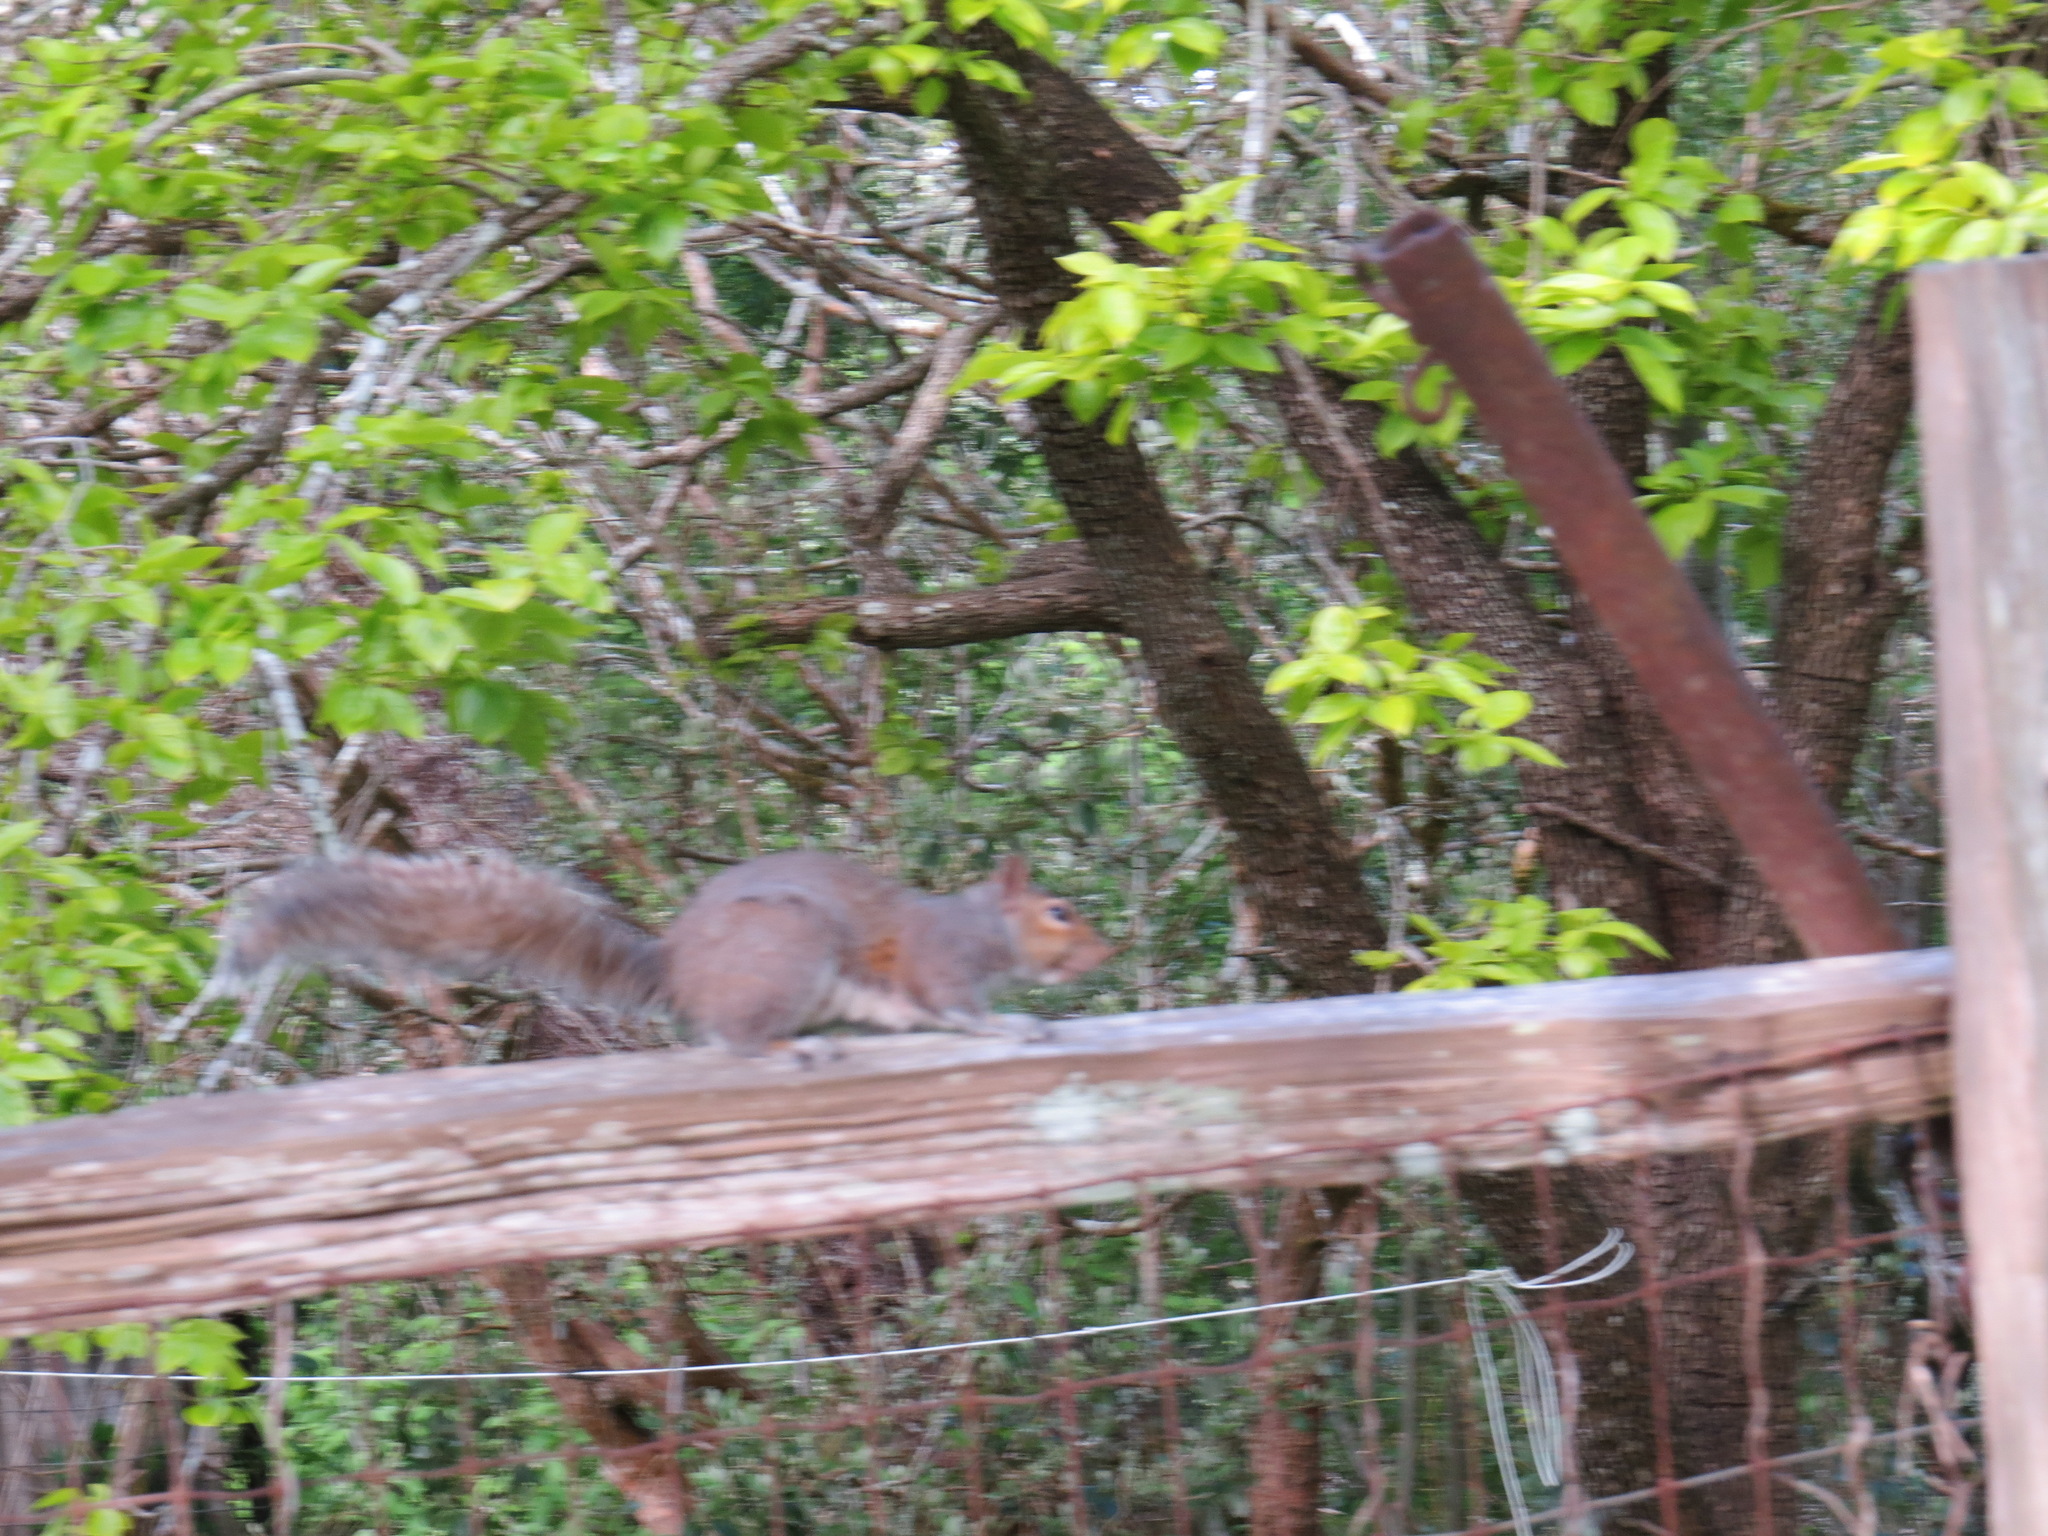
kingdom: Animalia
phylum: Chordata
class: Mammalia
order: Rodentia
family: Sciuridae
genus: Sciurus
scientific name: Sciurus carolinensis
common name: Eastern gray squirrel
